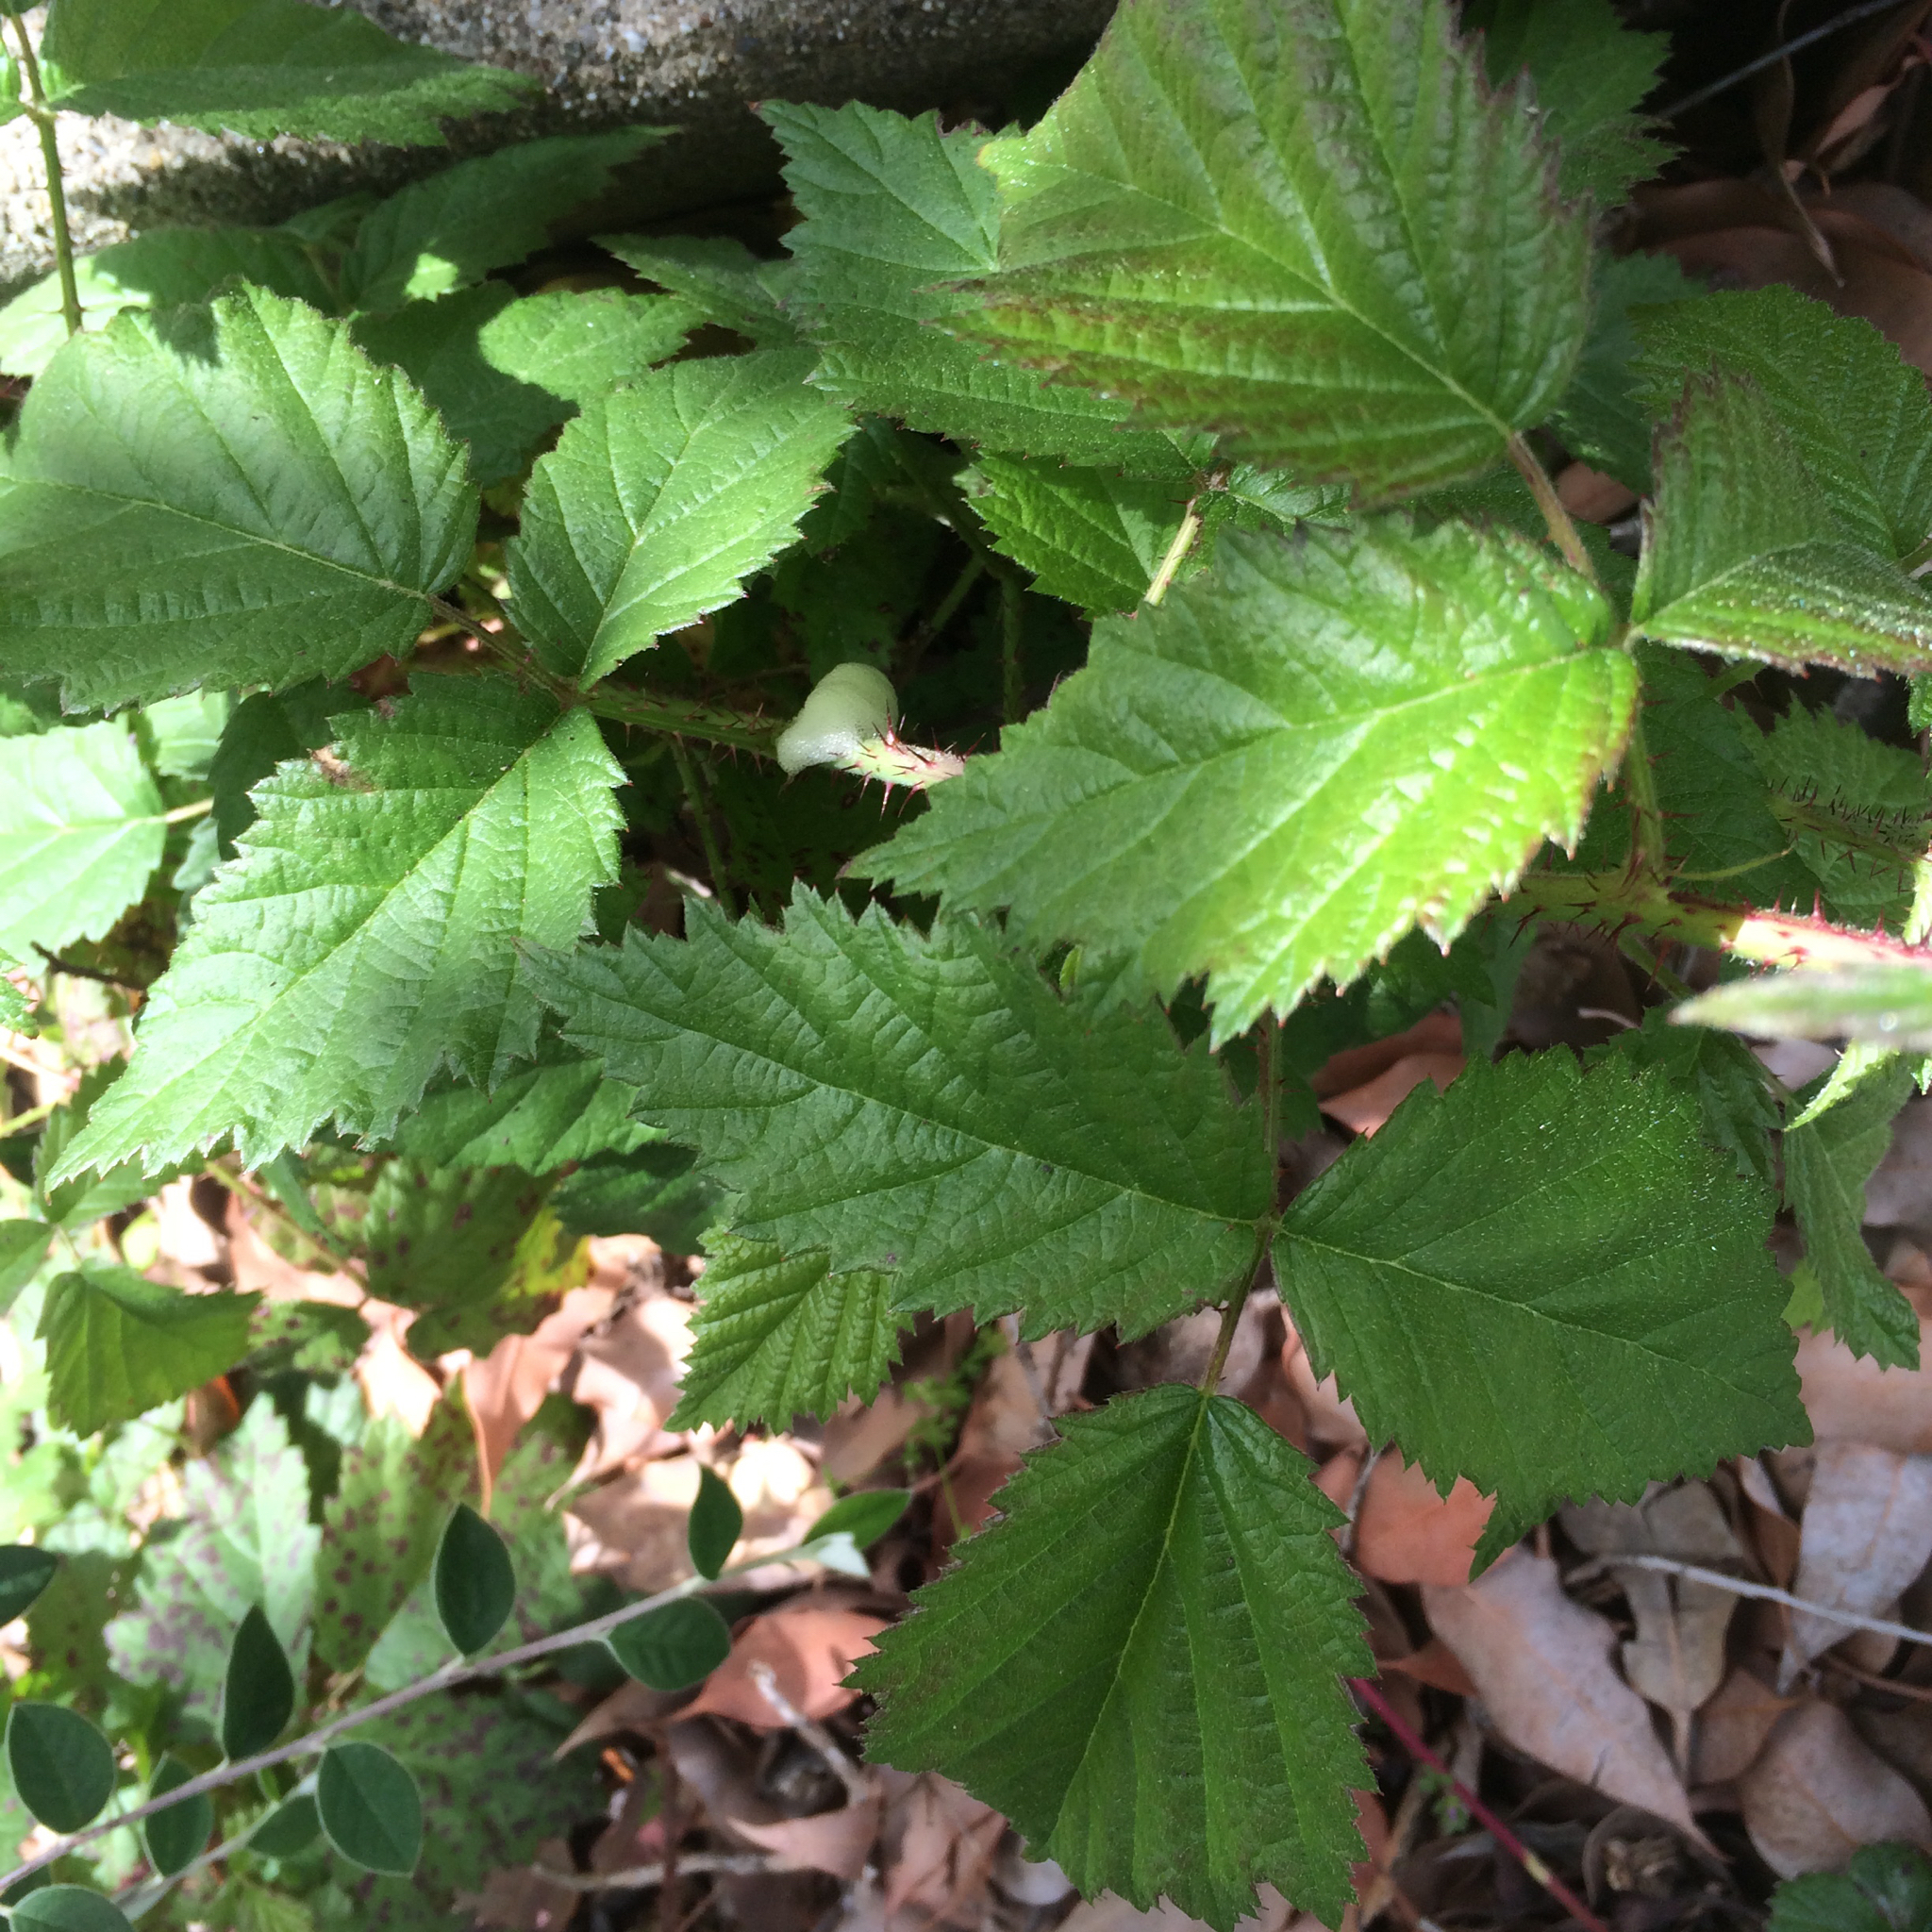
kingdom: Plantae
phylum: Tracheophyta
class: Magnoliopsida
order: Rosales
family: Rosaceae
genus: Rubus
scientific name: Rubus armeniacus
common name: Himalayan blackberry
